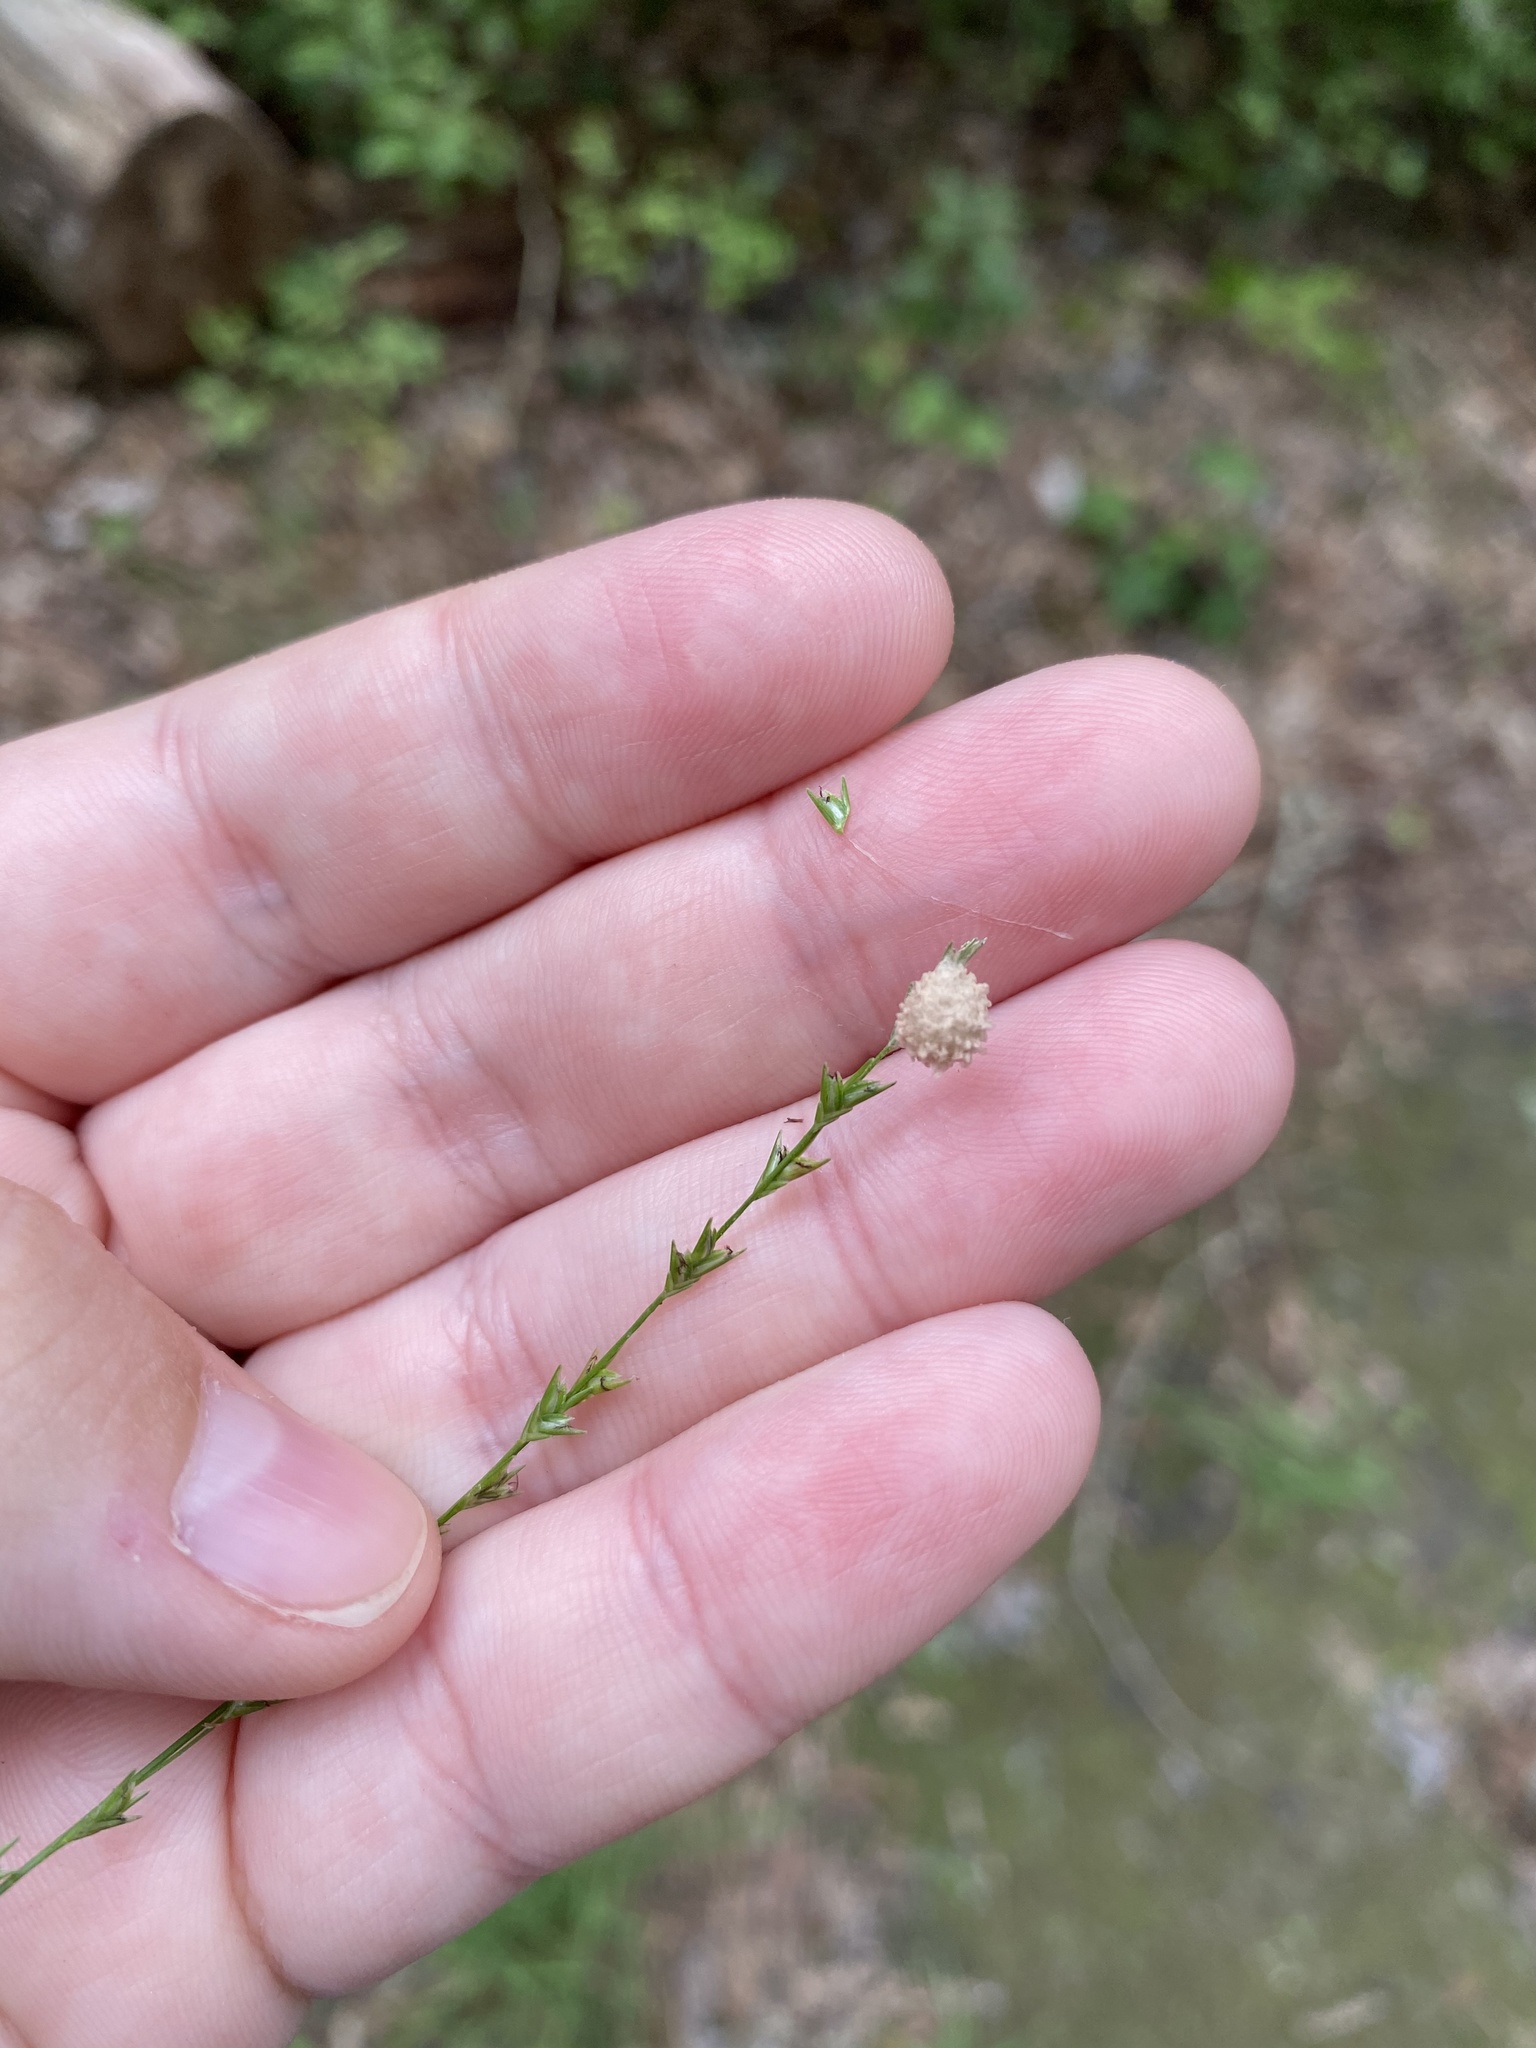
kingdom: Plantae
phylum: Tracheophyta
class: Liliopsida
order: Poales
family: Poaceae
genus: Chasmanthium
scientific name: Chasmanthium laxum
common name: Slender chasmanthium
